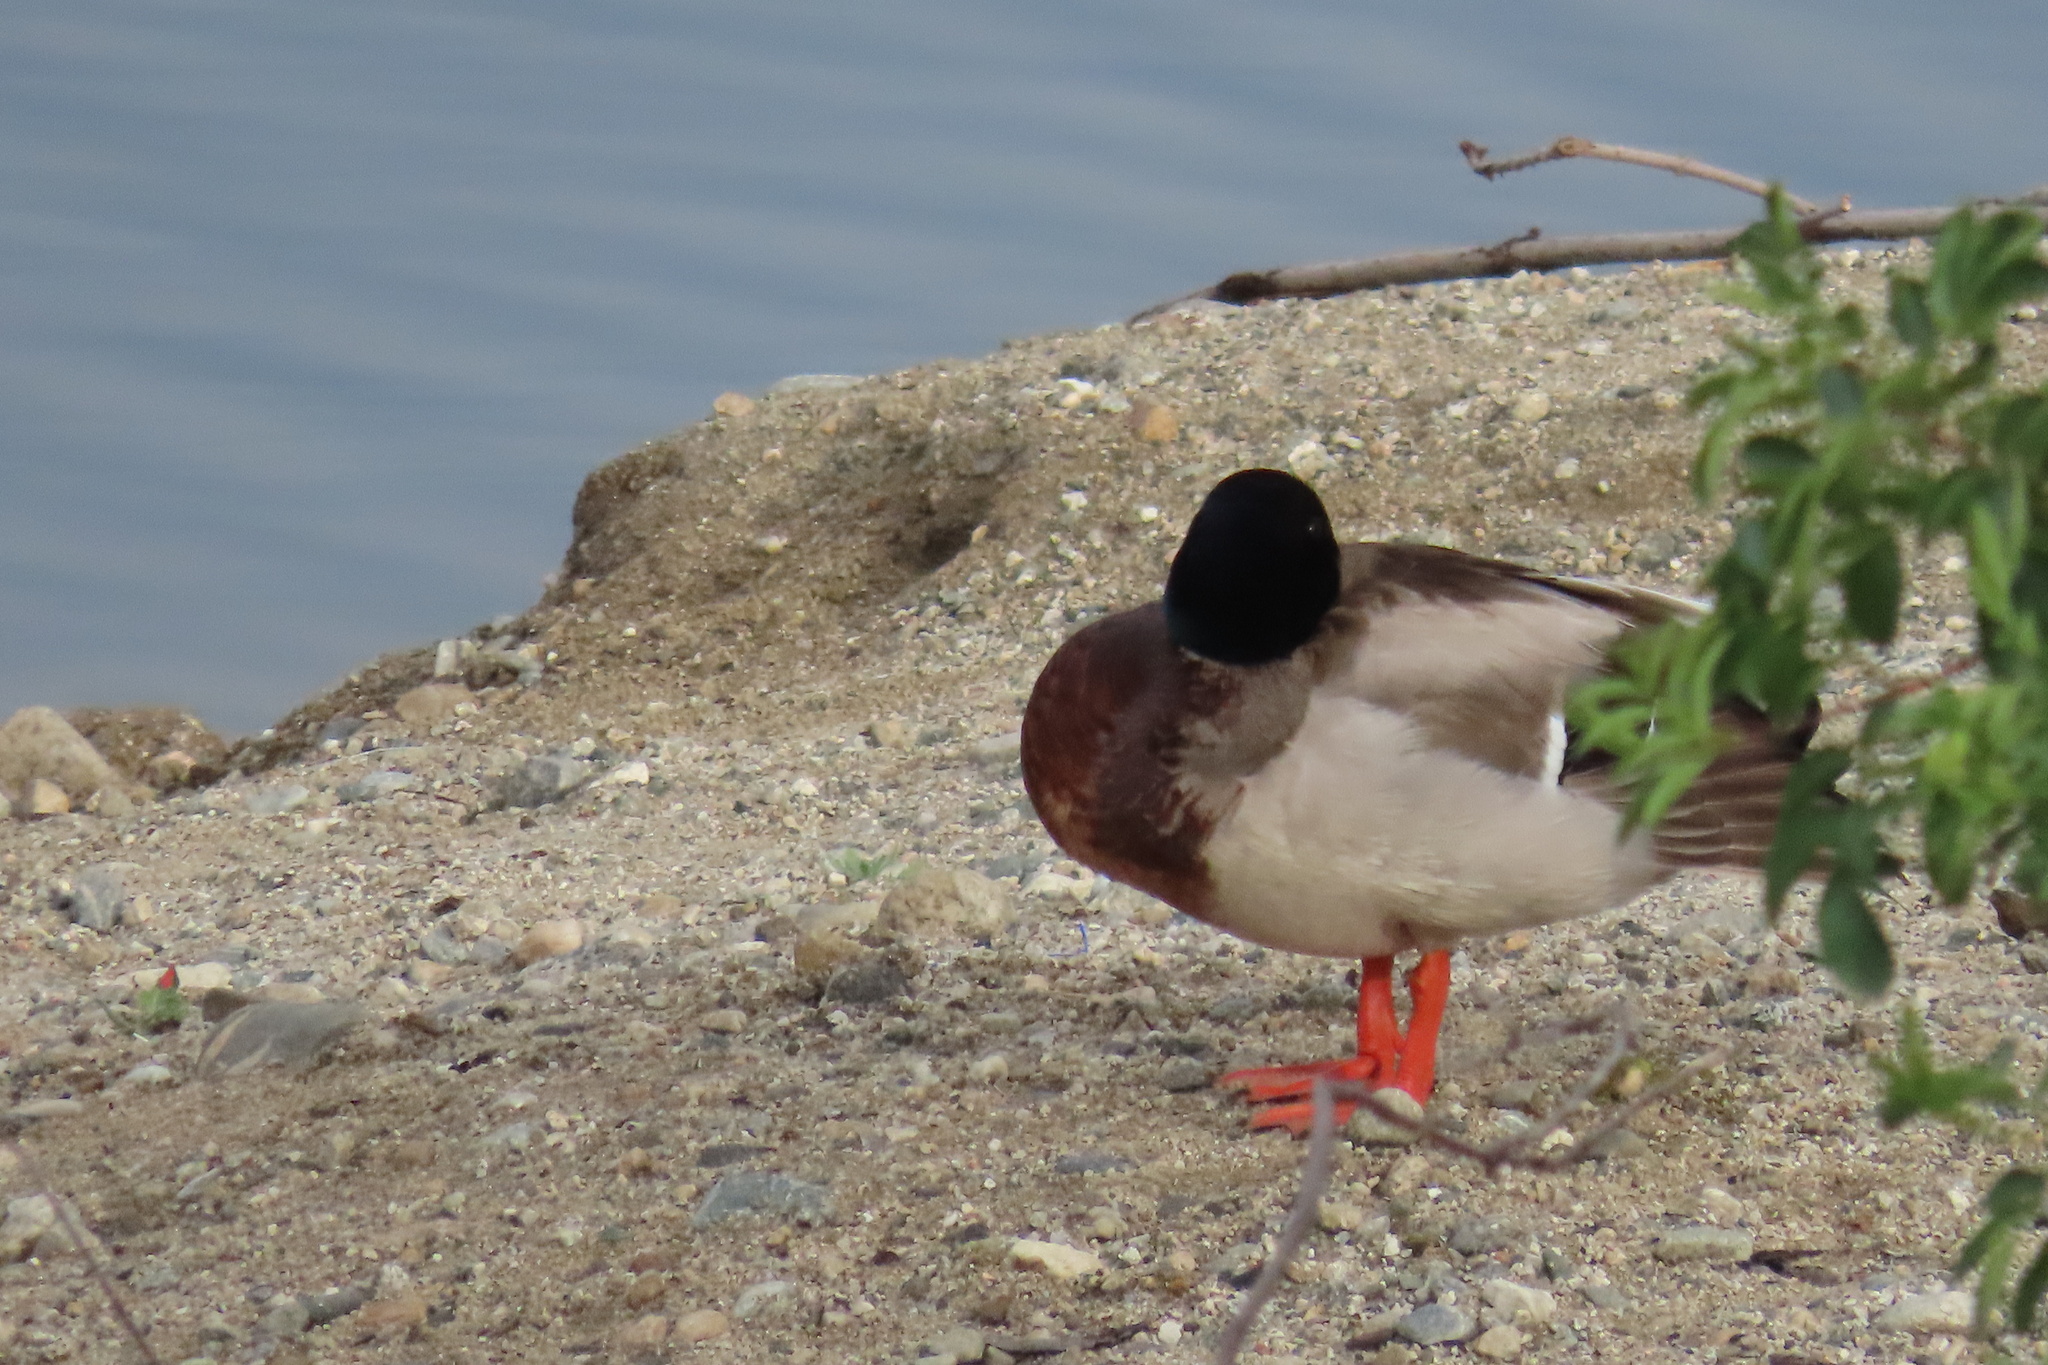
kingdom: Animalia
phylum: Chordata
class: Aves
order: Anseriformes
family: Anatidae
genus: Anas
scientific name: Anas platyrhynchos
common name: Mallard
